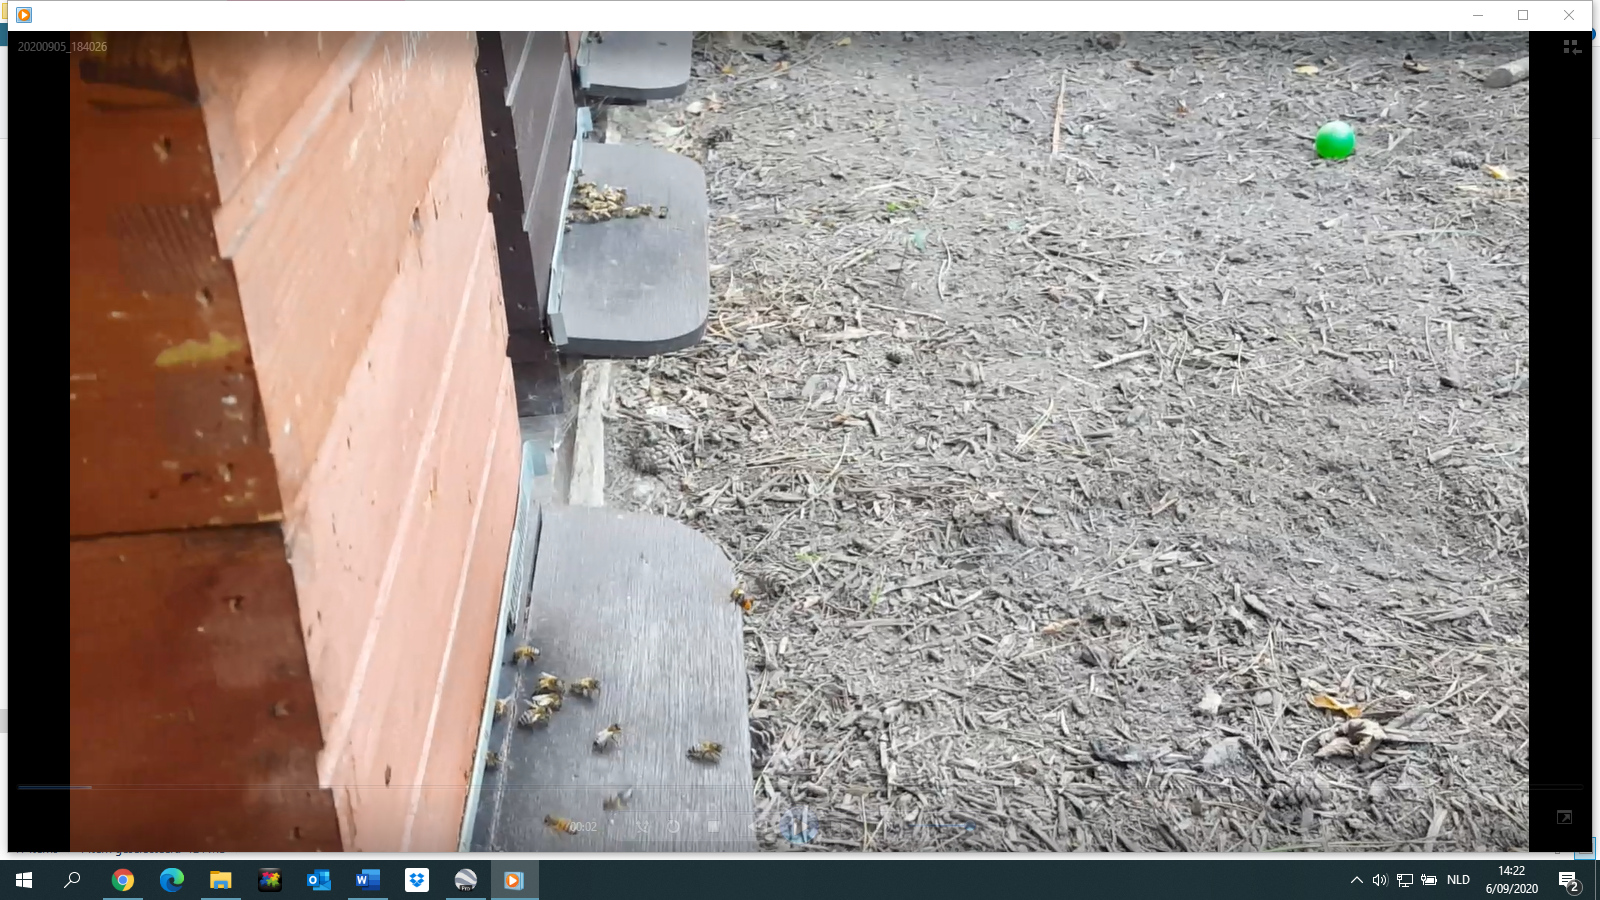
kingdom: Animalia
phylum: Arthropoda
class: Insecta
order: Hymenoptera
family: Vespidae
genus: Vespa
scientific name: Vespa velutina
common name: Asian hornet
